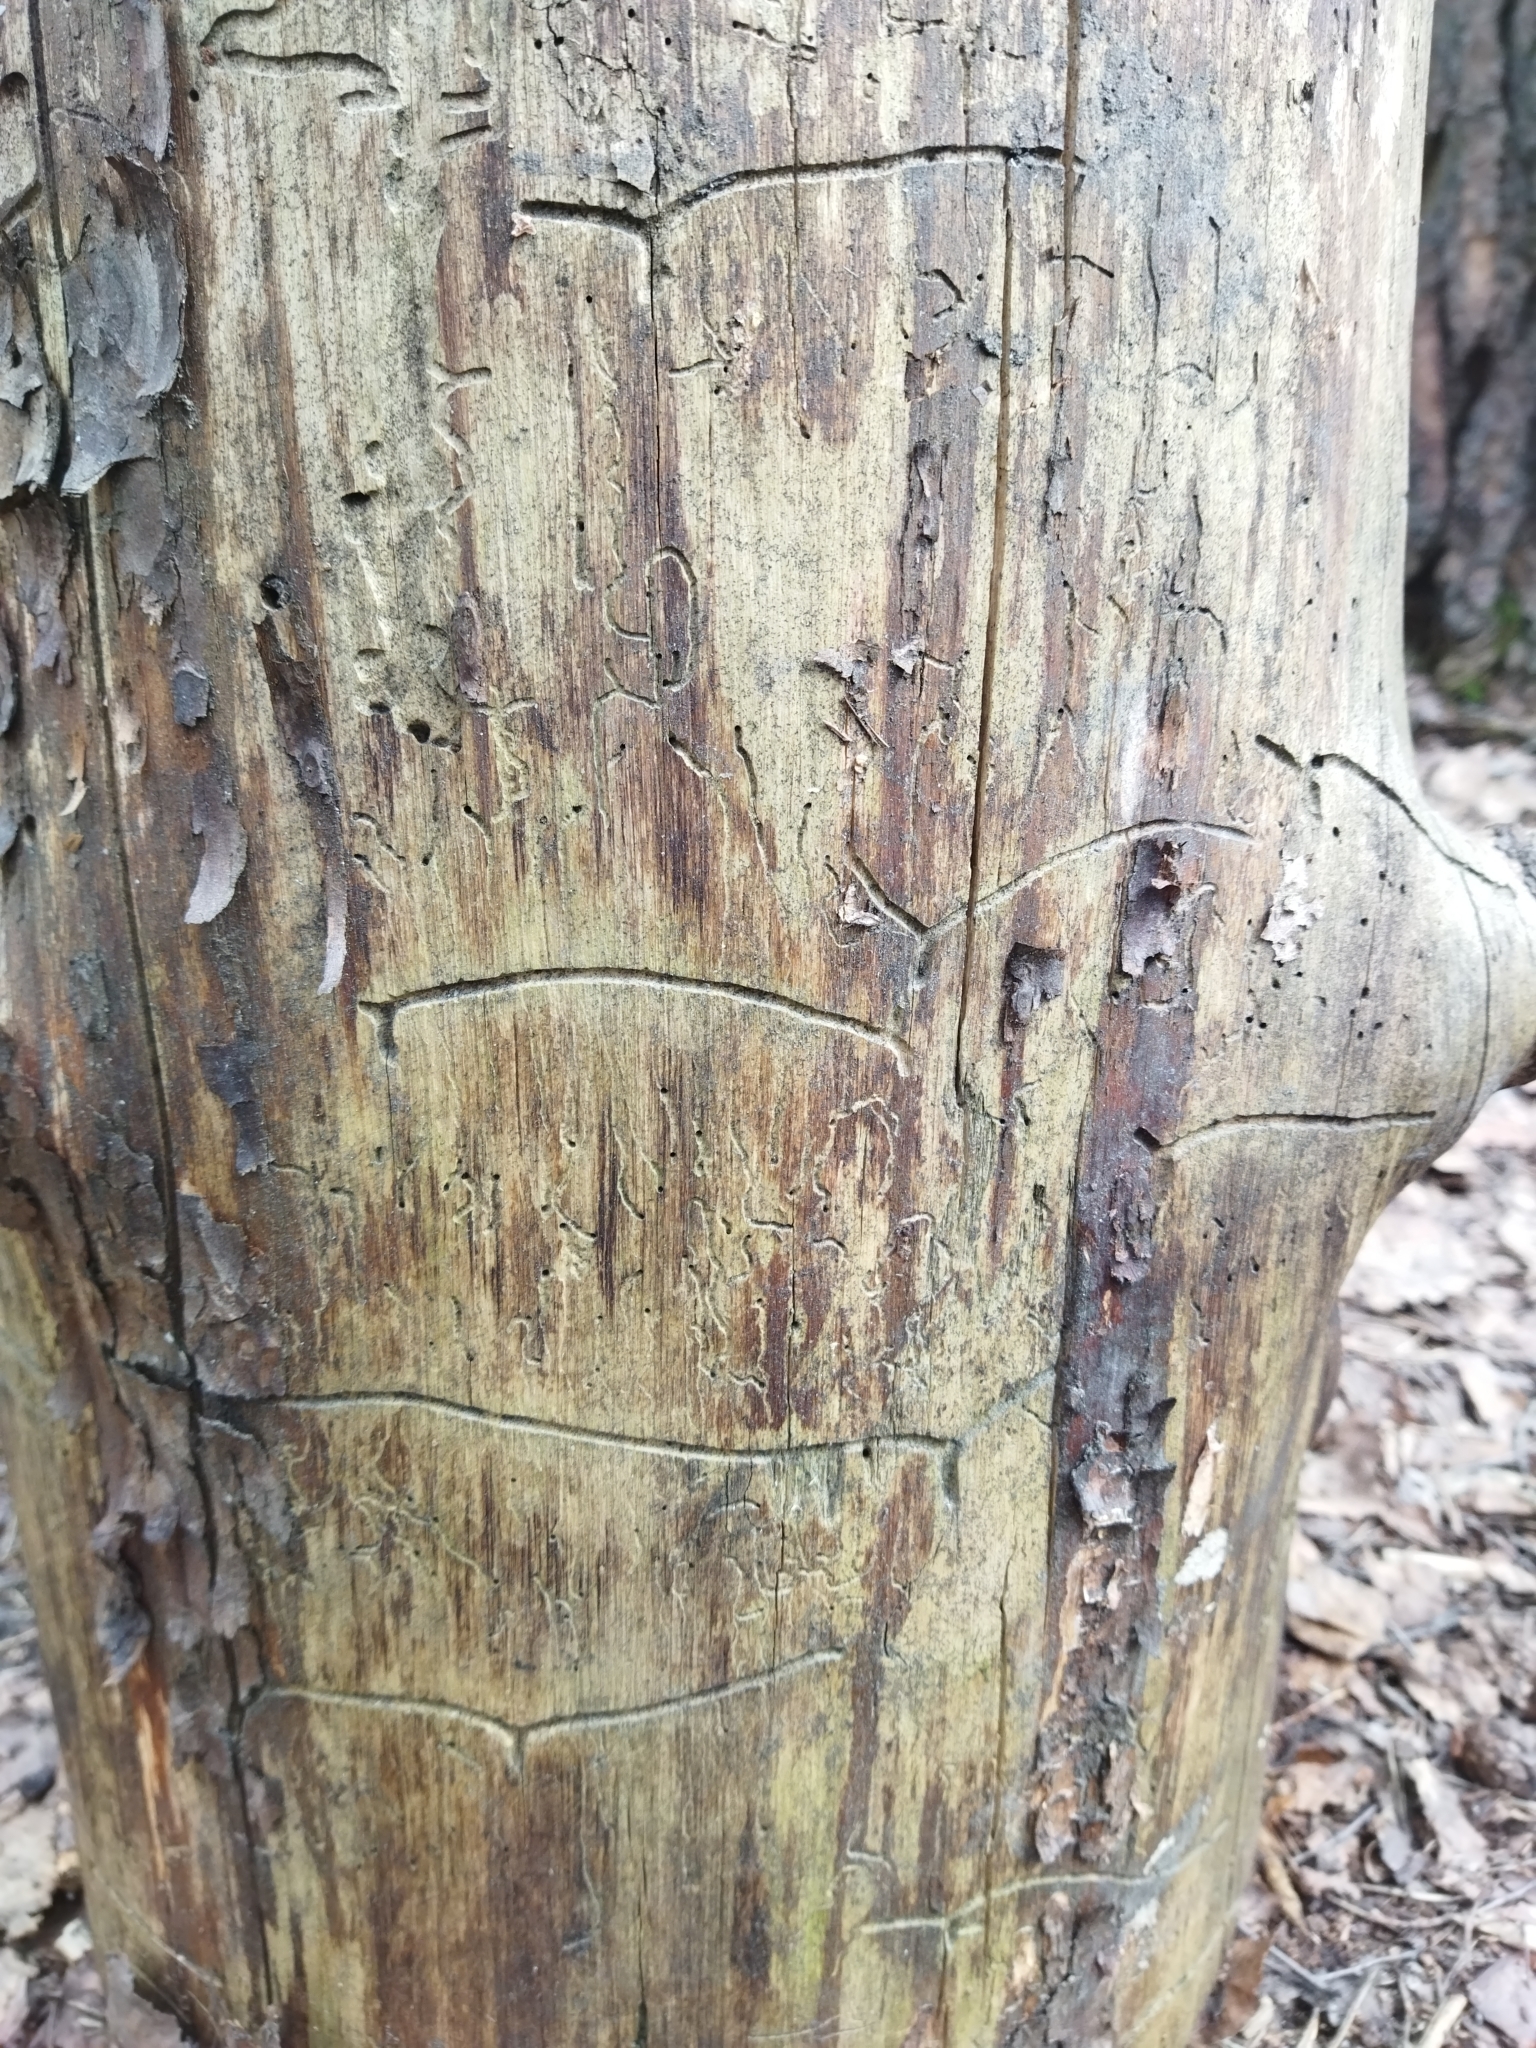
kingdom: Animalia
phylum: Arthropoda
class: Insecta
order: Coleoptera
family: Curculionidae
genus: Tomicus
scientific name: Tomicus minor
